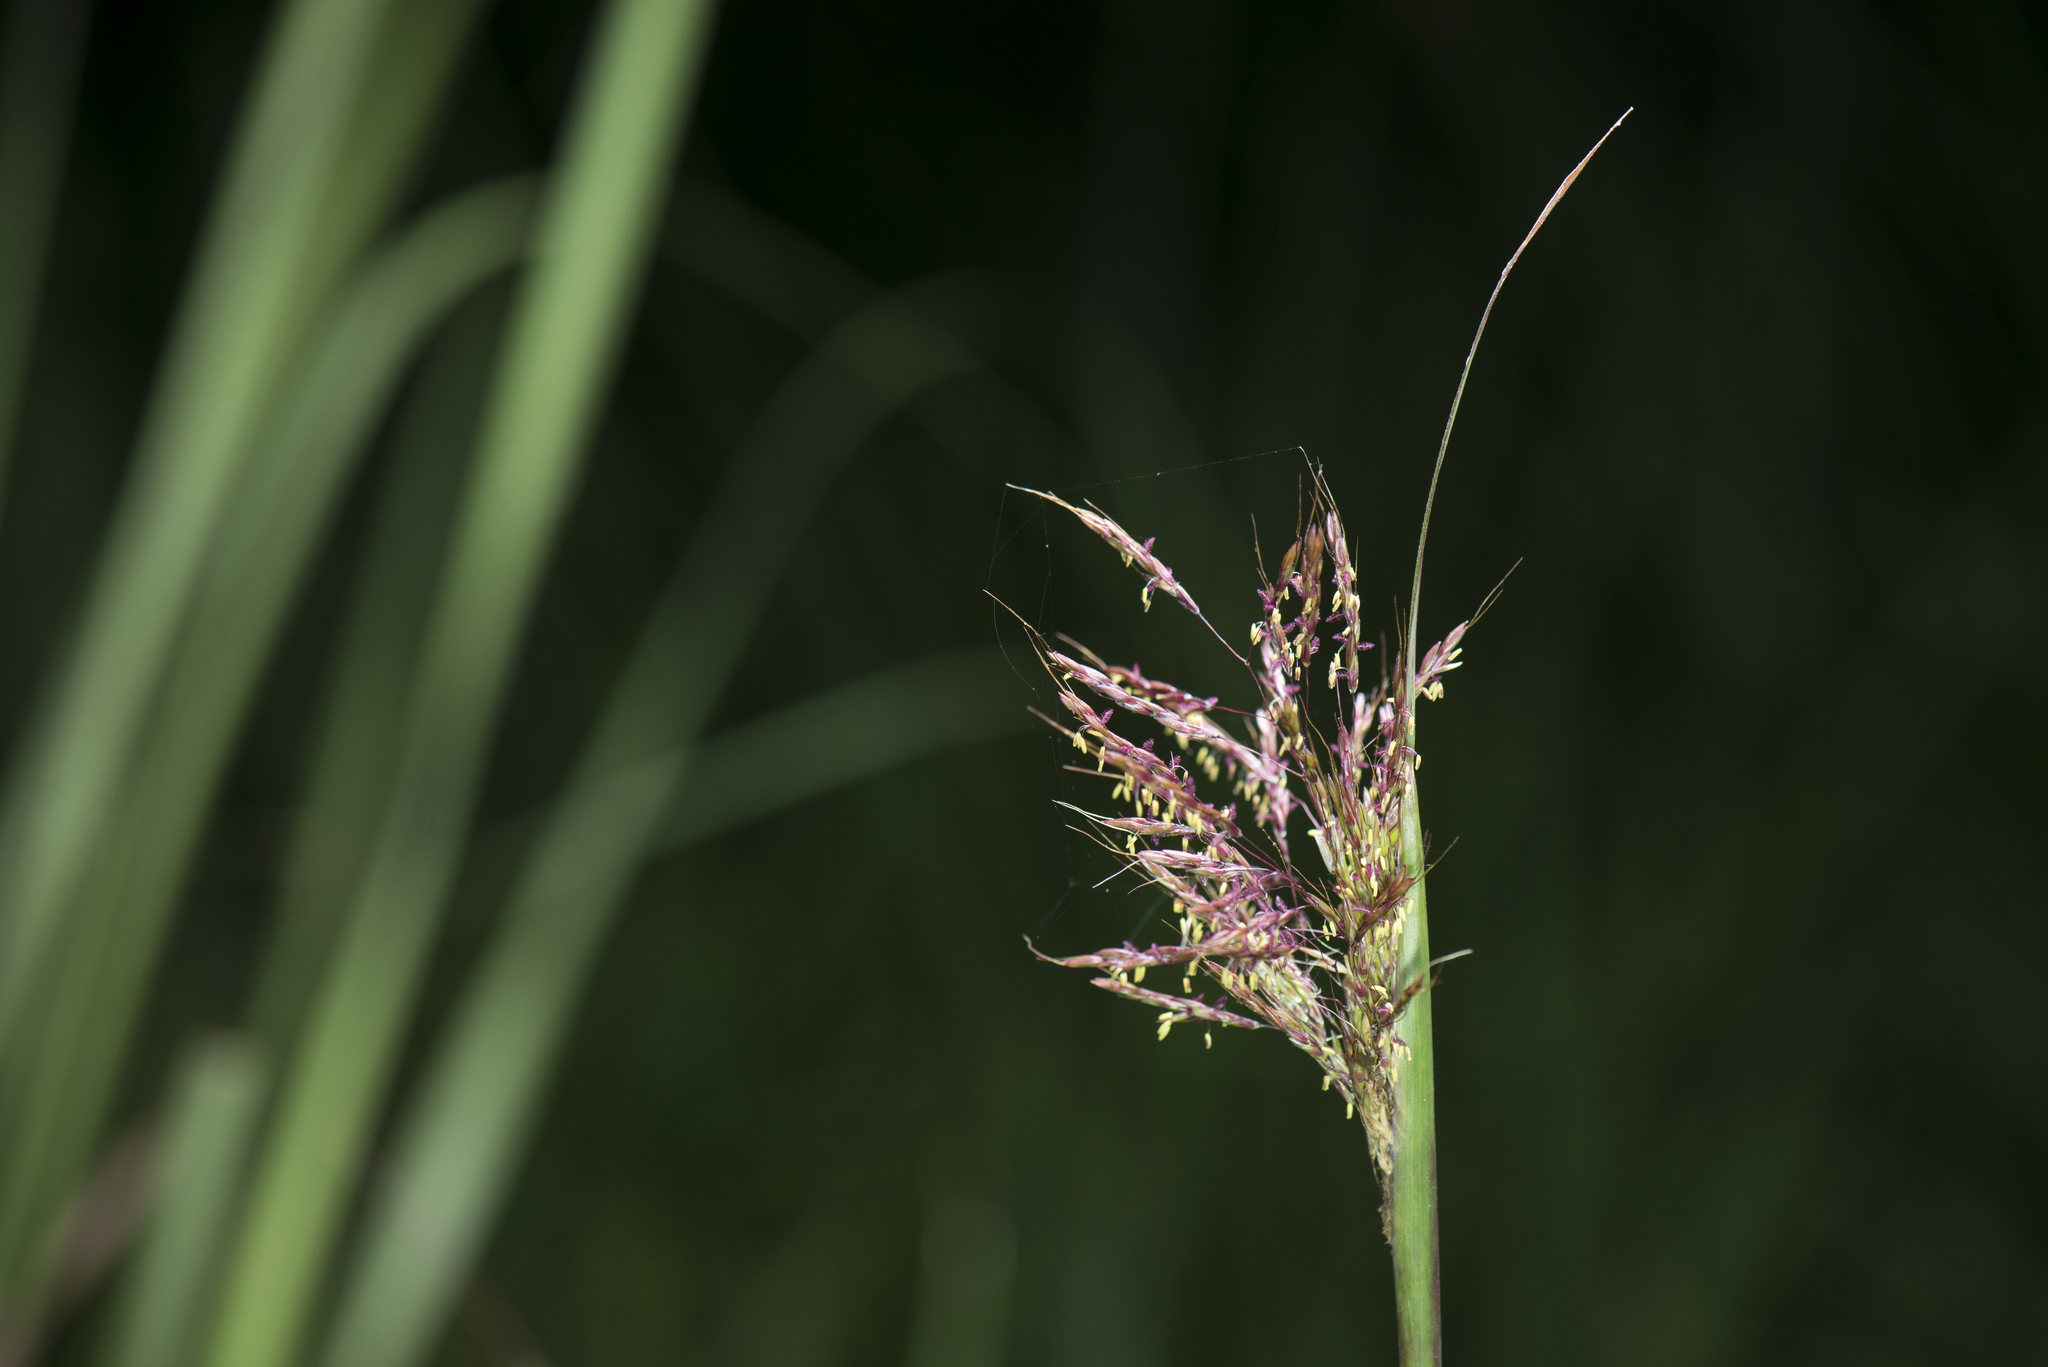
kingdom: Plantae
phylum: Tracheophyta
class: Liliopsida
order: Poales
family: Poaceae
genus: Capillipedium
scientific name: Capillipedium parviflorum
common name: Golden-beard
